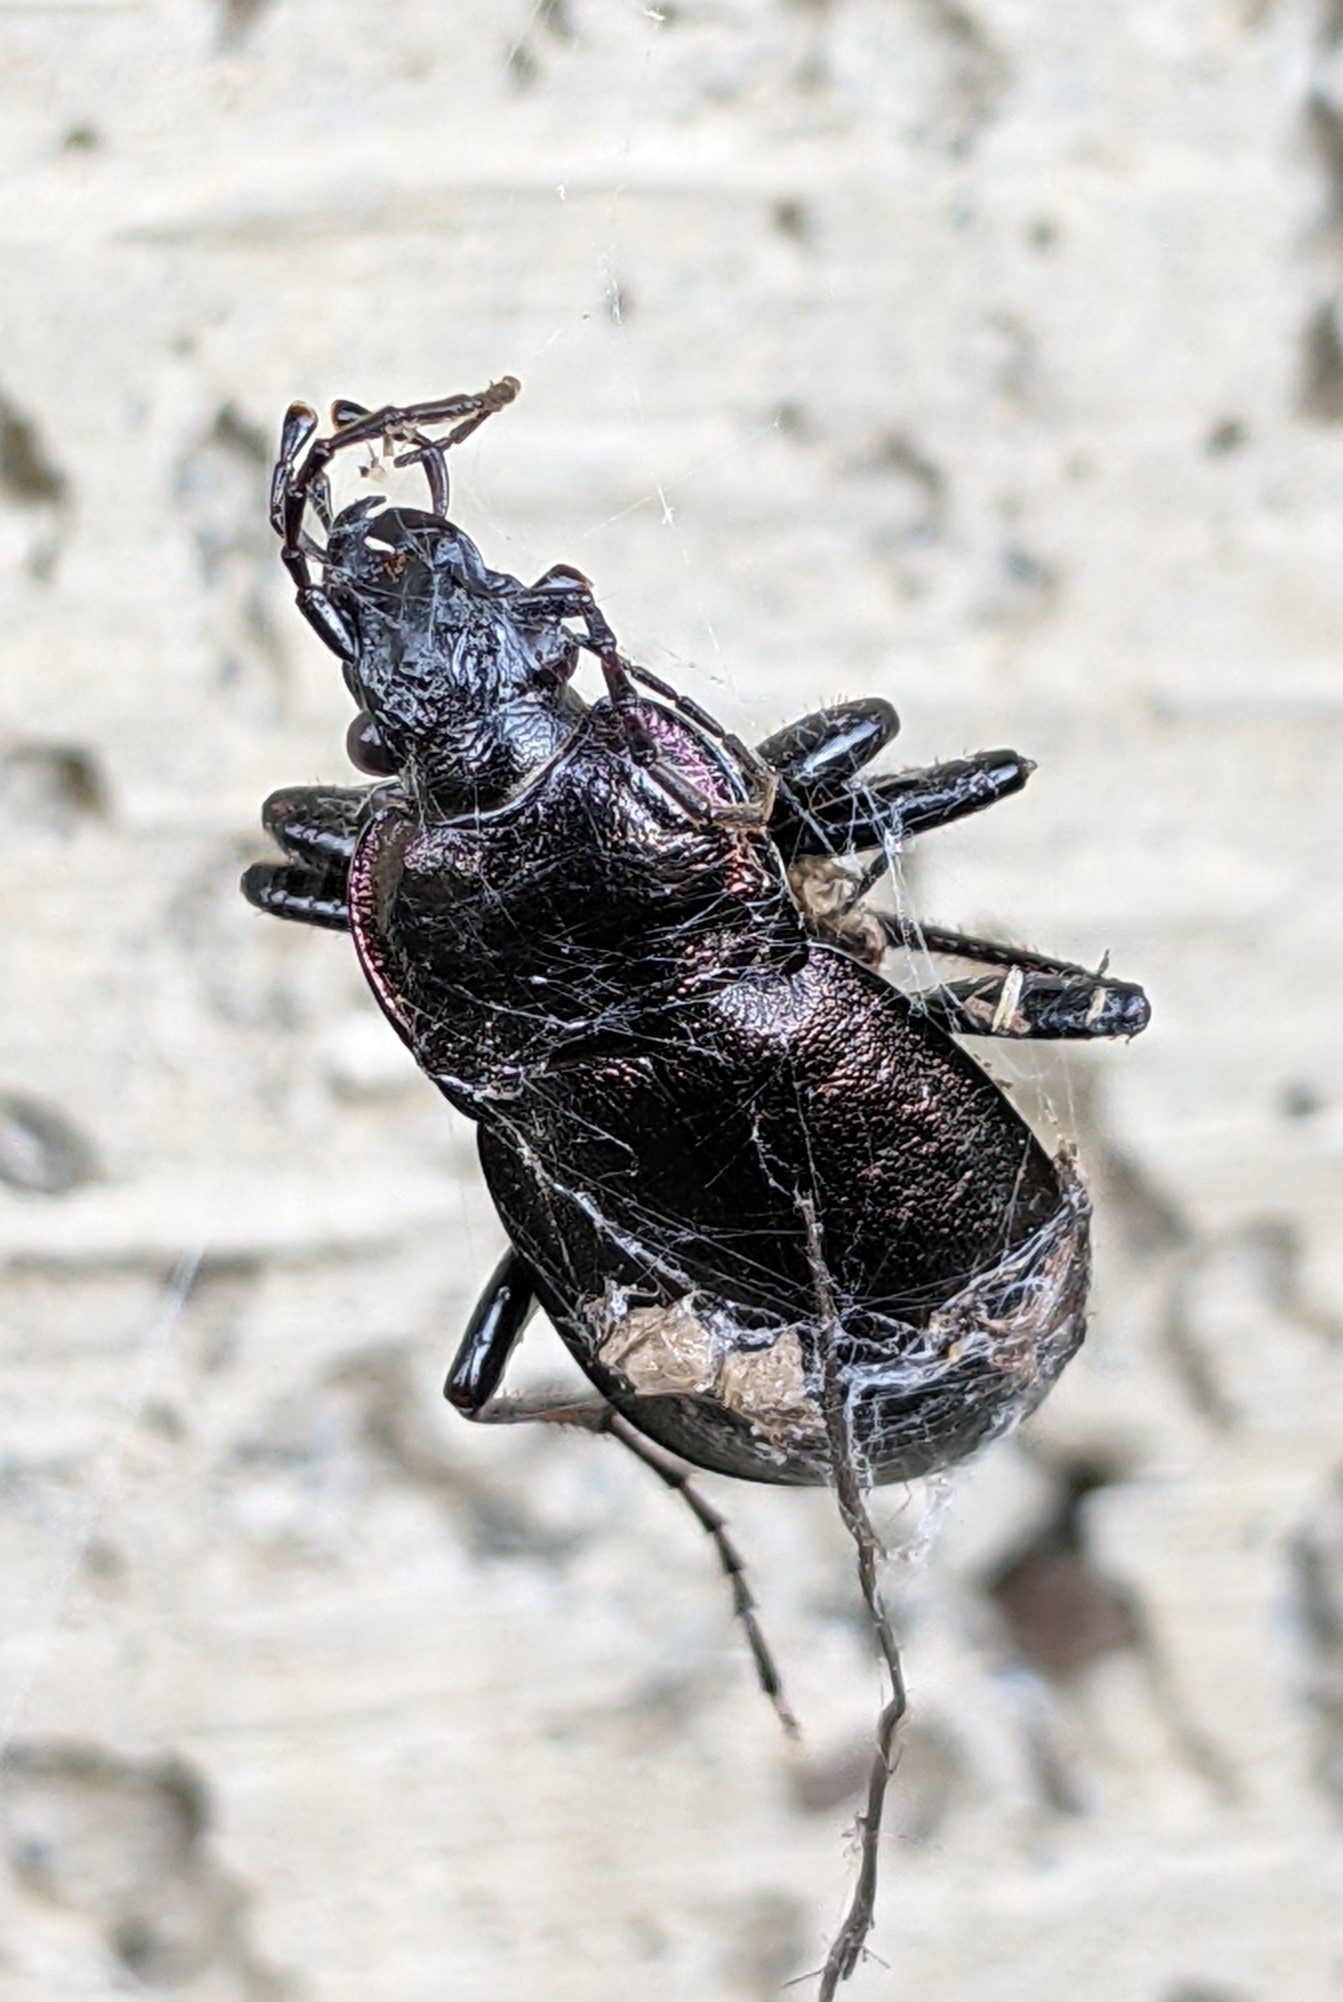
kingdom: Animalia
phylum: Arthropoda
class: Insecta
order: Coleoptera
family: Carabidae
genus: Carabus
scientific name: Carabus nemoralis
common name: European ground beetle
